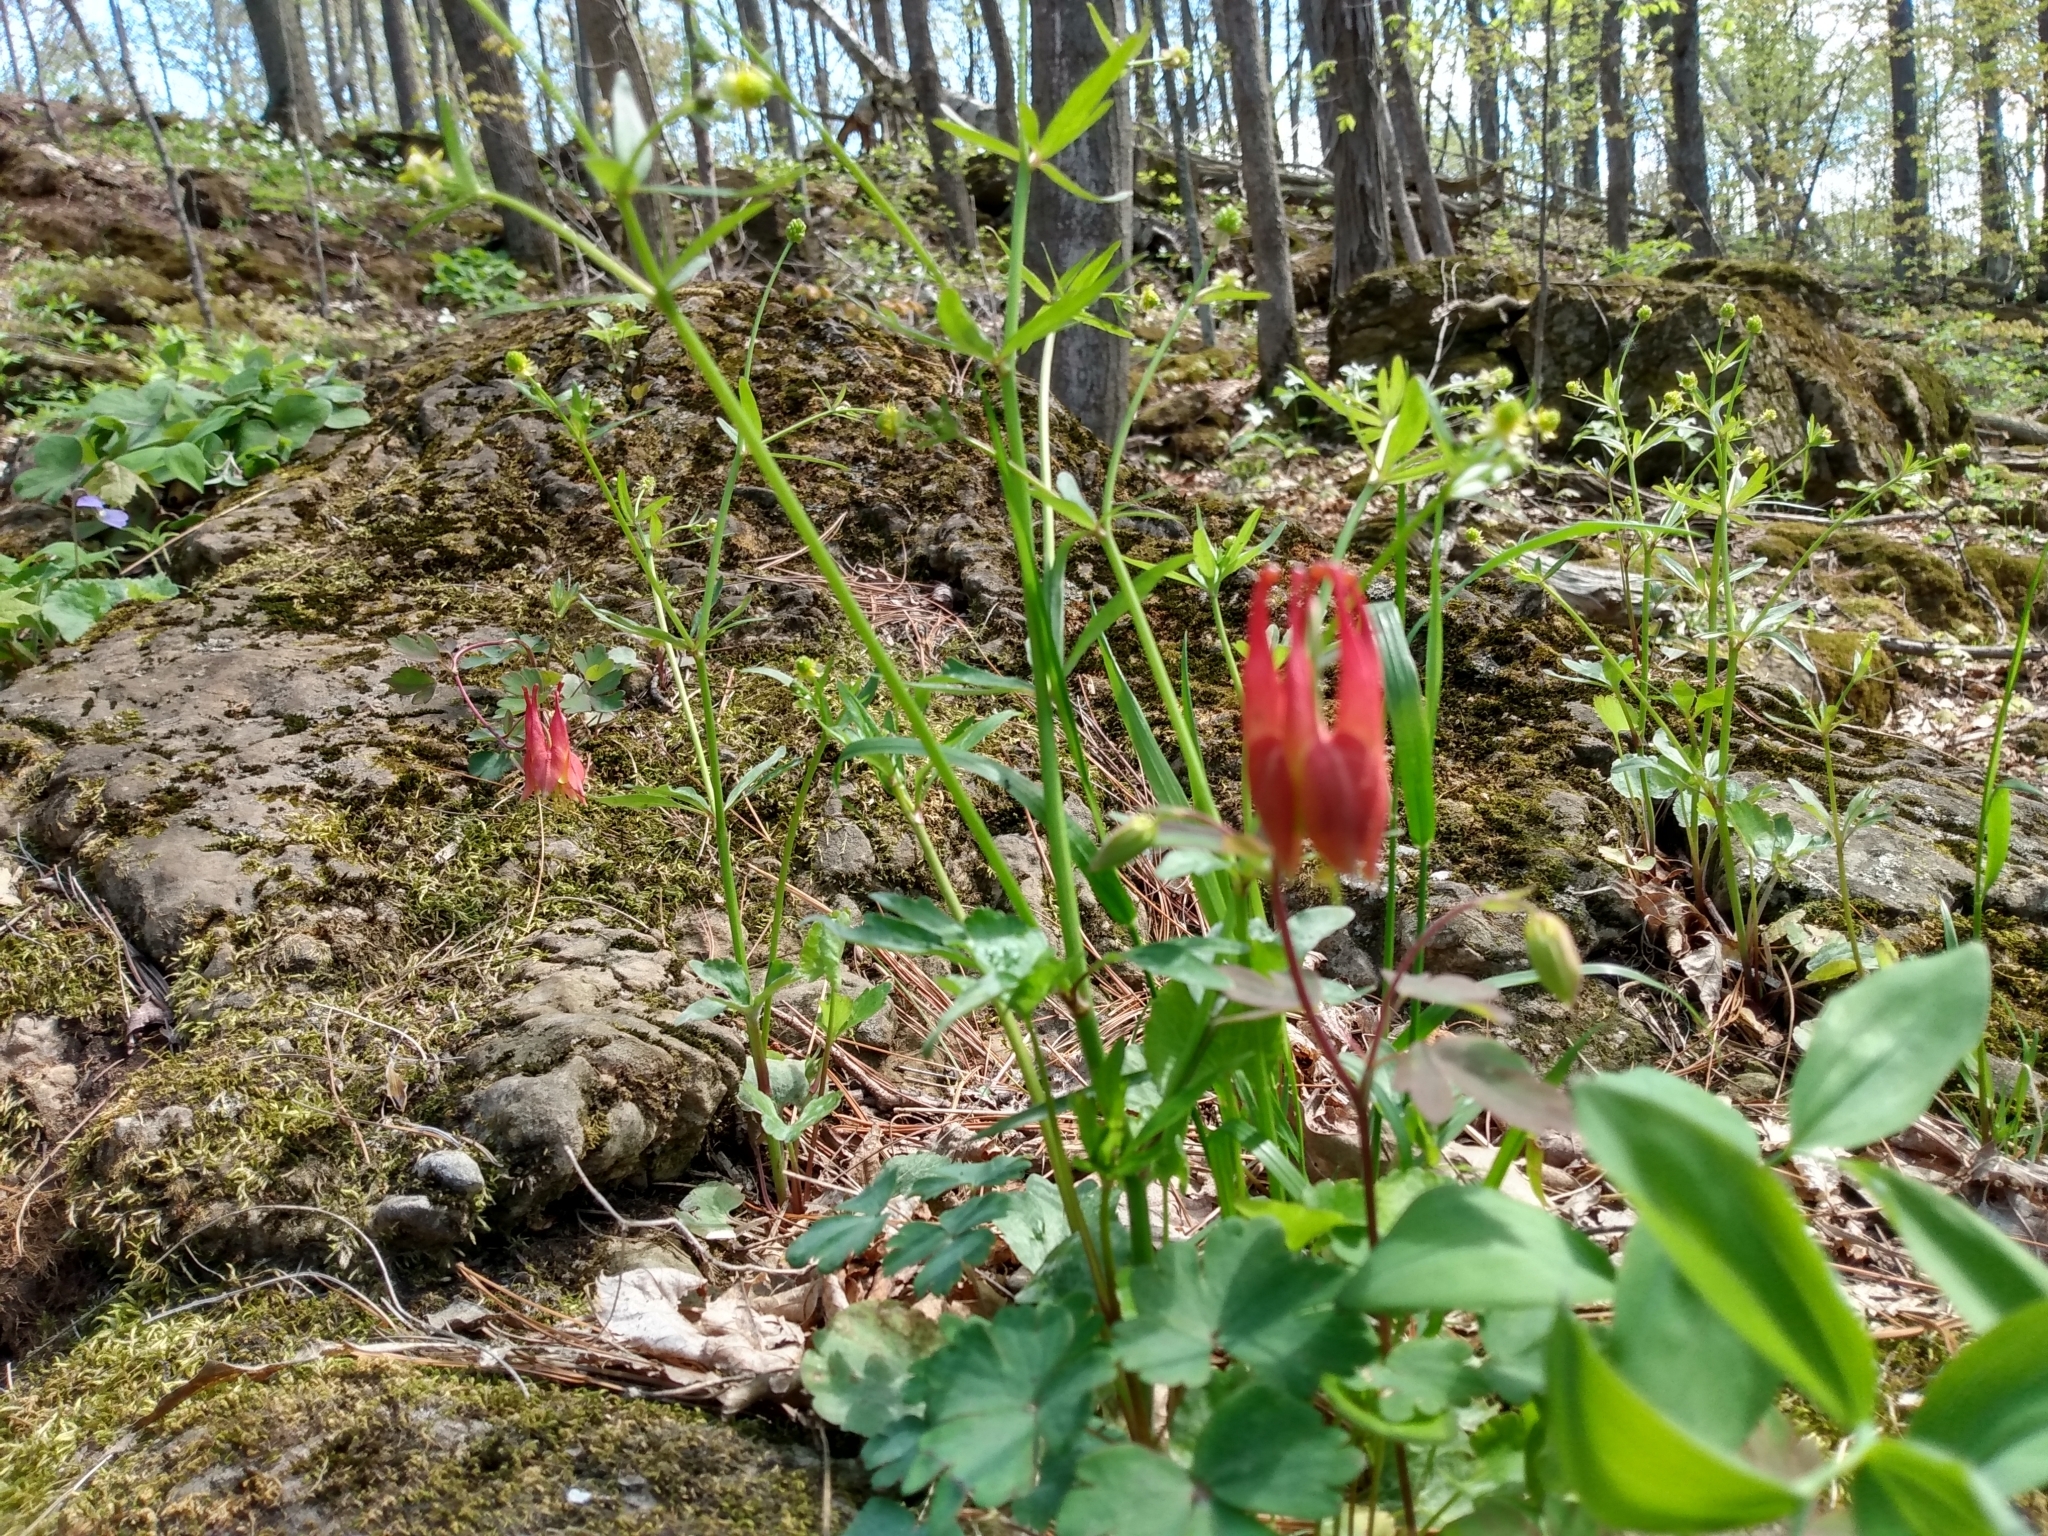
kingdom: Plantae
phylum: Tracheophyta
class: Magnoliopsida
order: Ranunculales
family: Ranunculaceae
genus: Aquilegia
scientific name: Aquilegia canadensis
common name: American columbine
